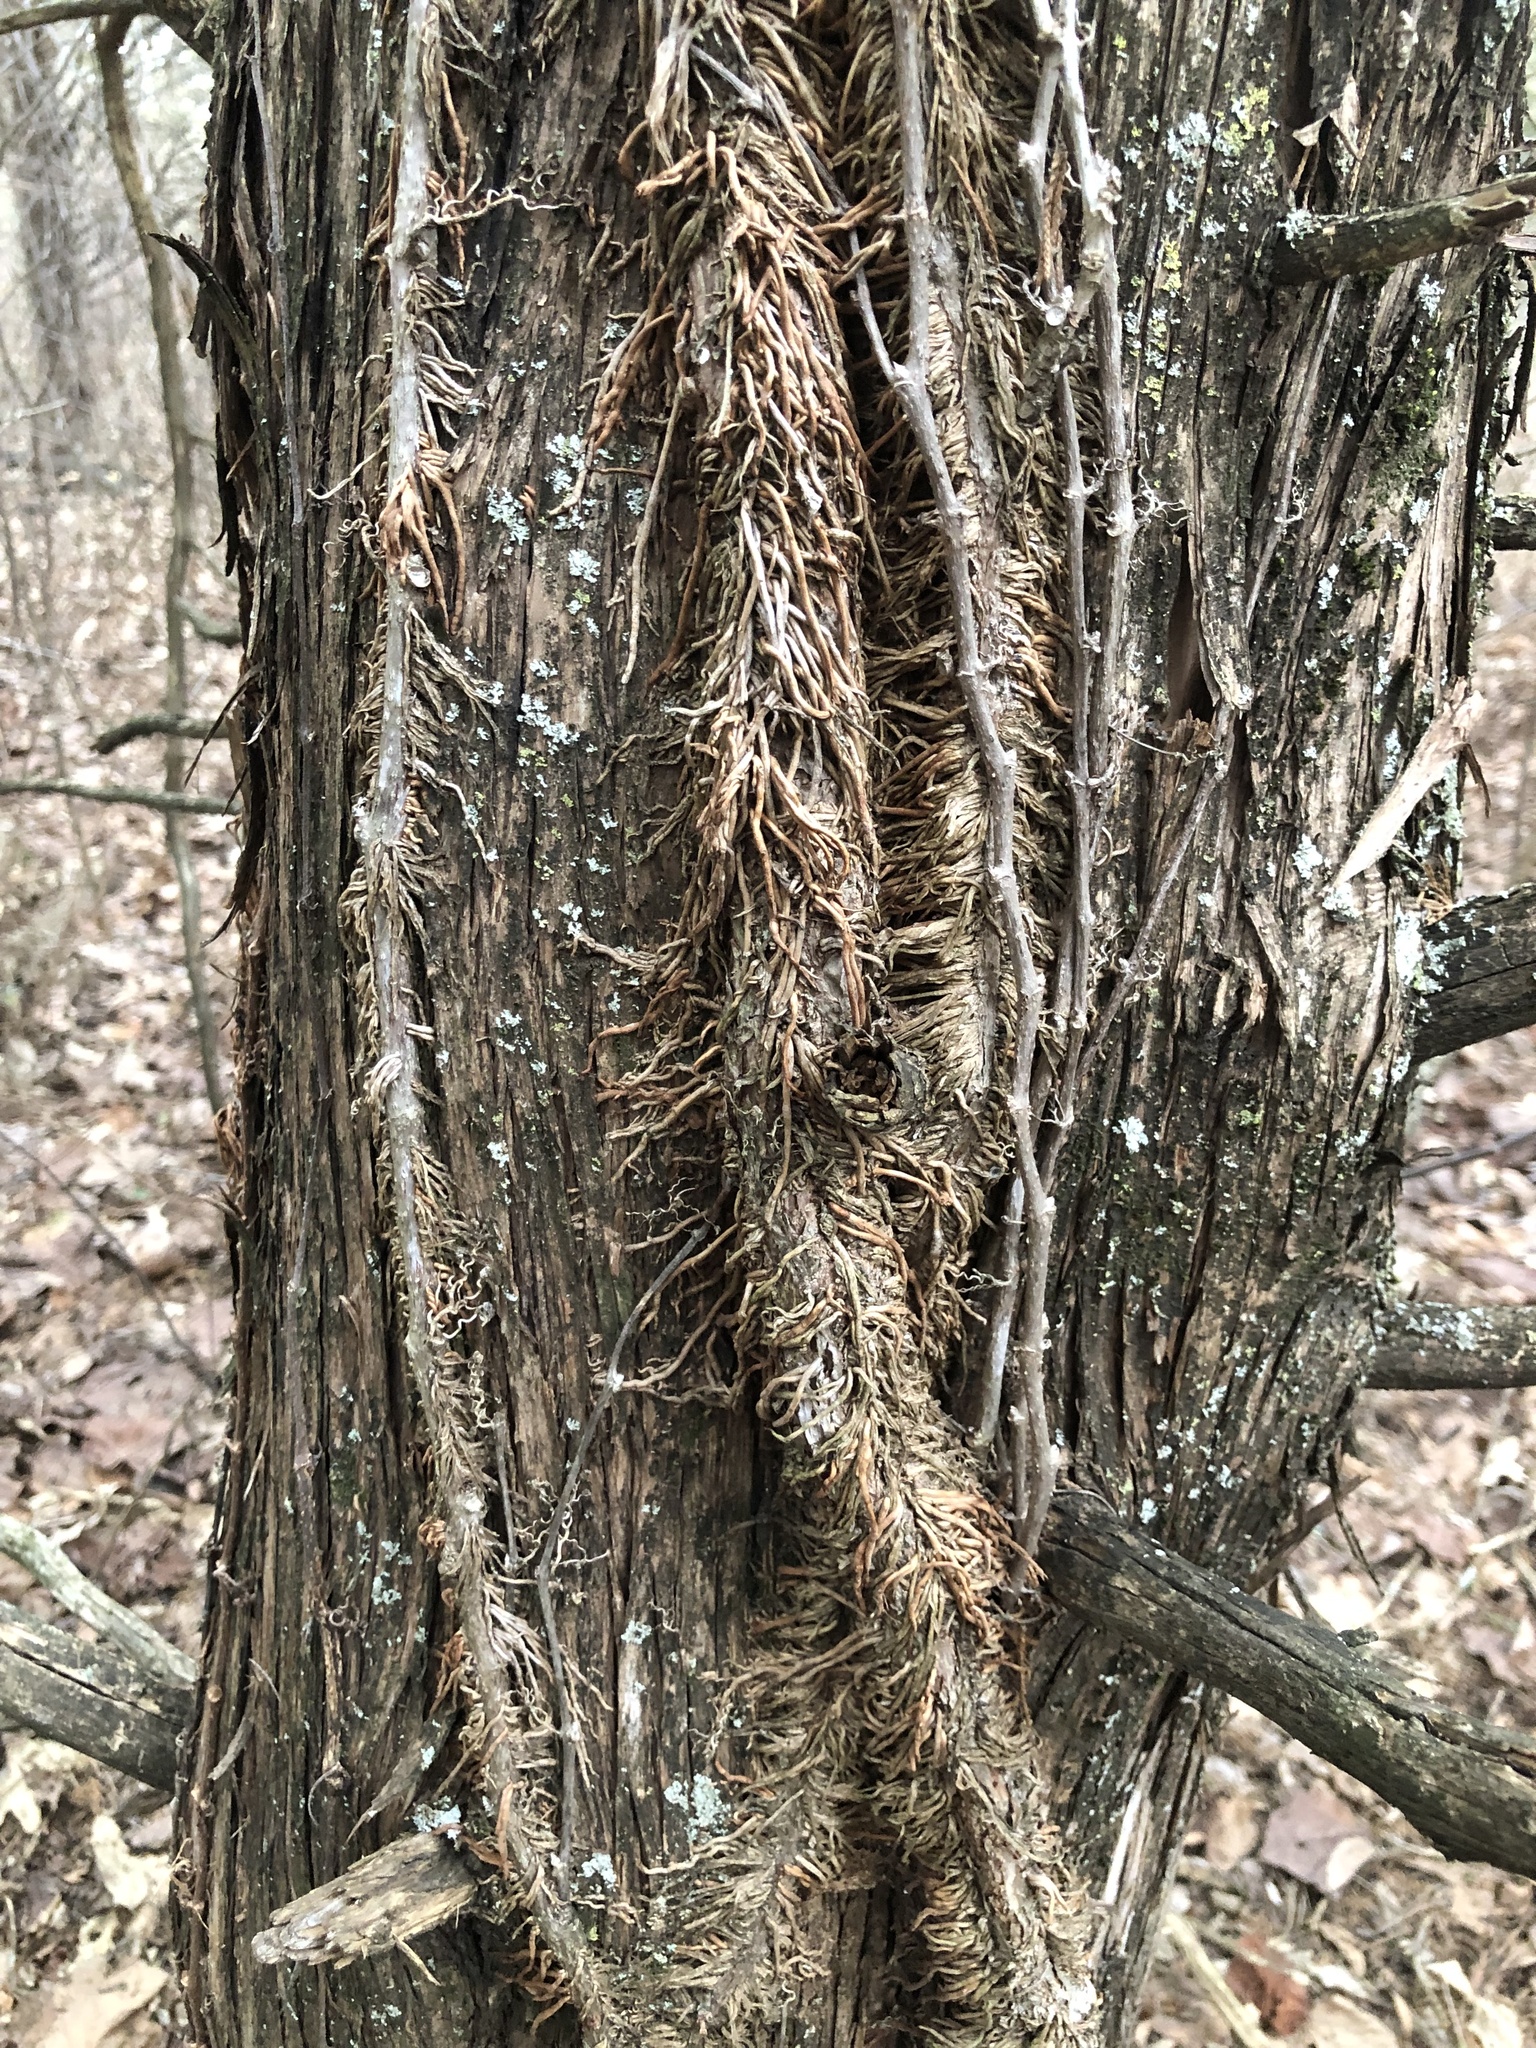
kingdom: Plantae
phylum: Tracheophyta
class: Magnoliopsida
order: Sapindales
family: Anacardiaceae
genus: Toxicodendron
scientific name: Toxicodendron radicans
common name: Poison ivy
